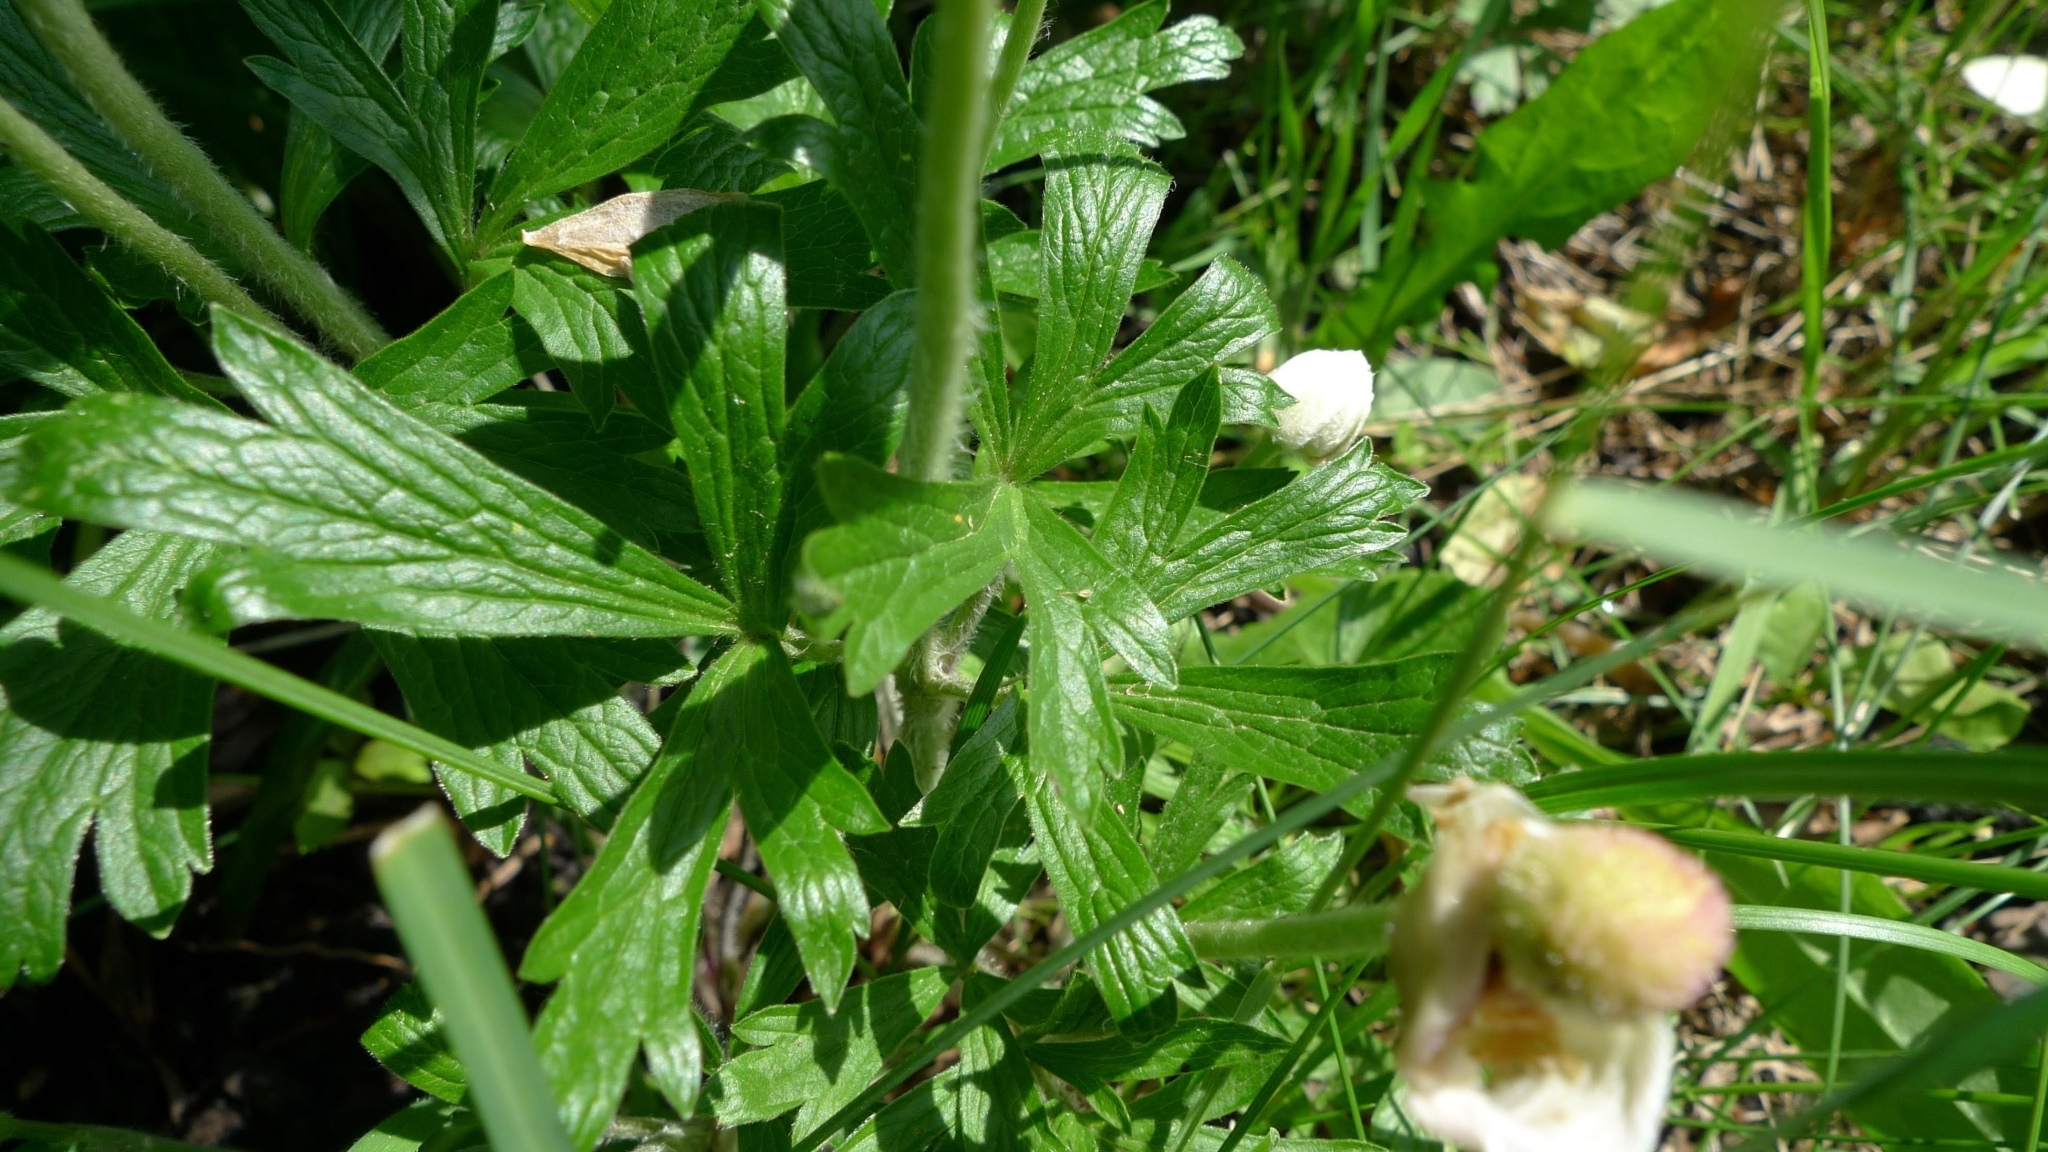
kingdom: Plantae
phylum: Tracheophyta
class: Magnoliopsida
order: Ranunculales
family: Ranunculaceae
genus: Anemone
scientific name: Anemone sylvestris
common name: Snowdrop anemone
